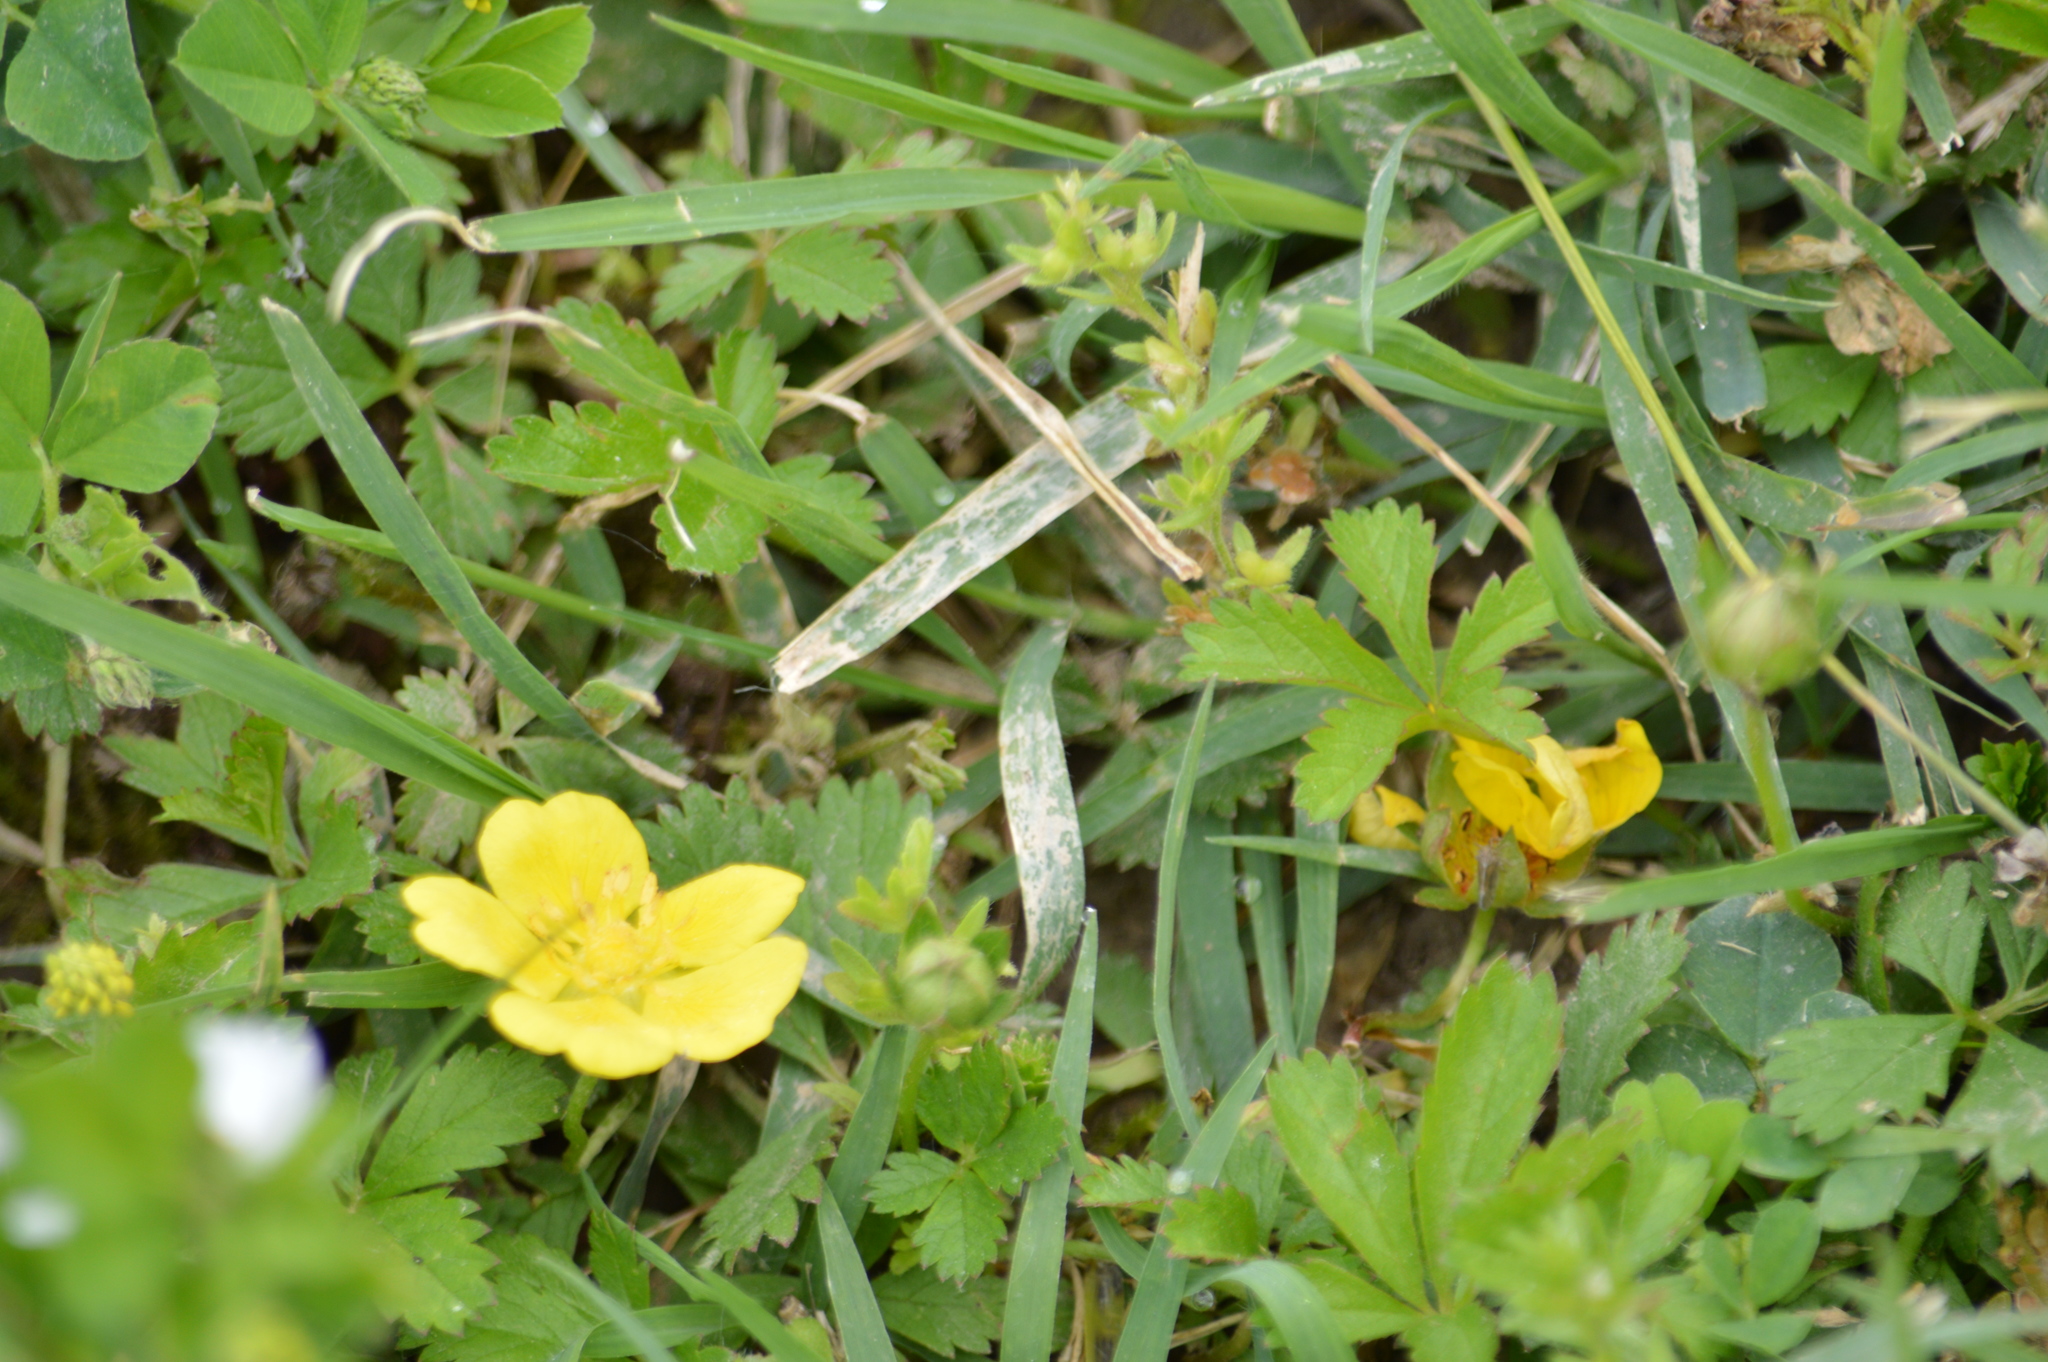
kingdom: Plantae
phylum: Tracheophyta
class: Magnoliopsida
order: Rosales
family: Rosaceae
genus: Potentilla
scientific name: Potentilla reptans
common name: Creeping cinquefoil
